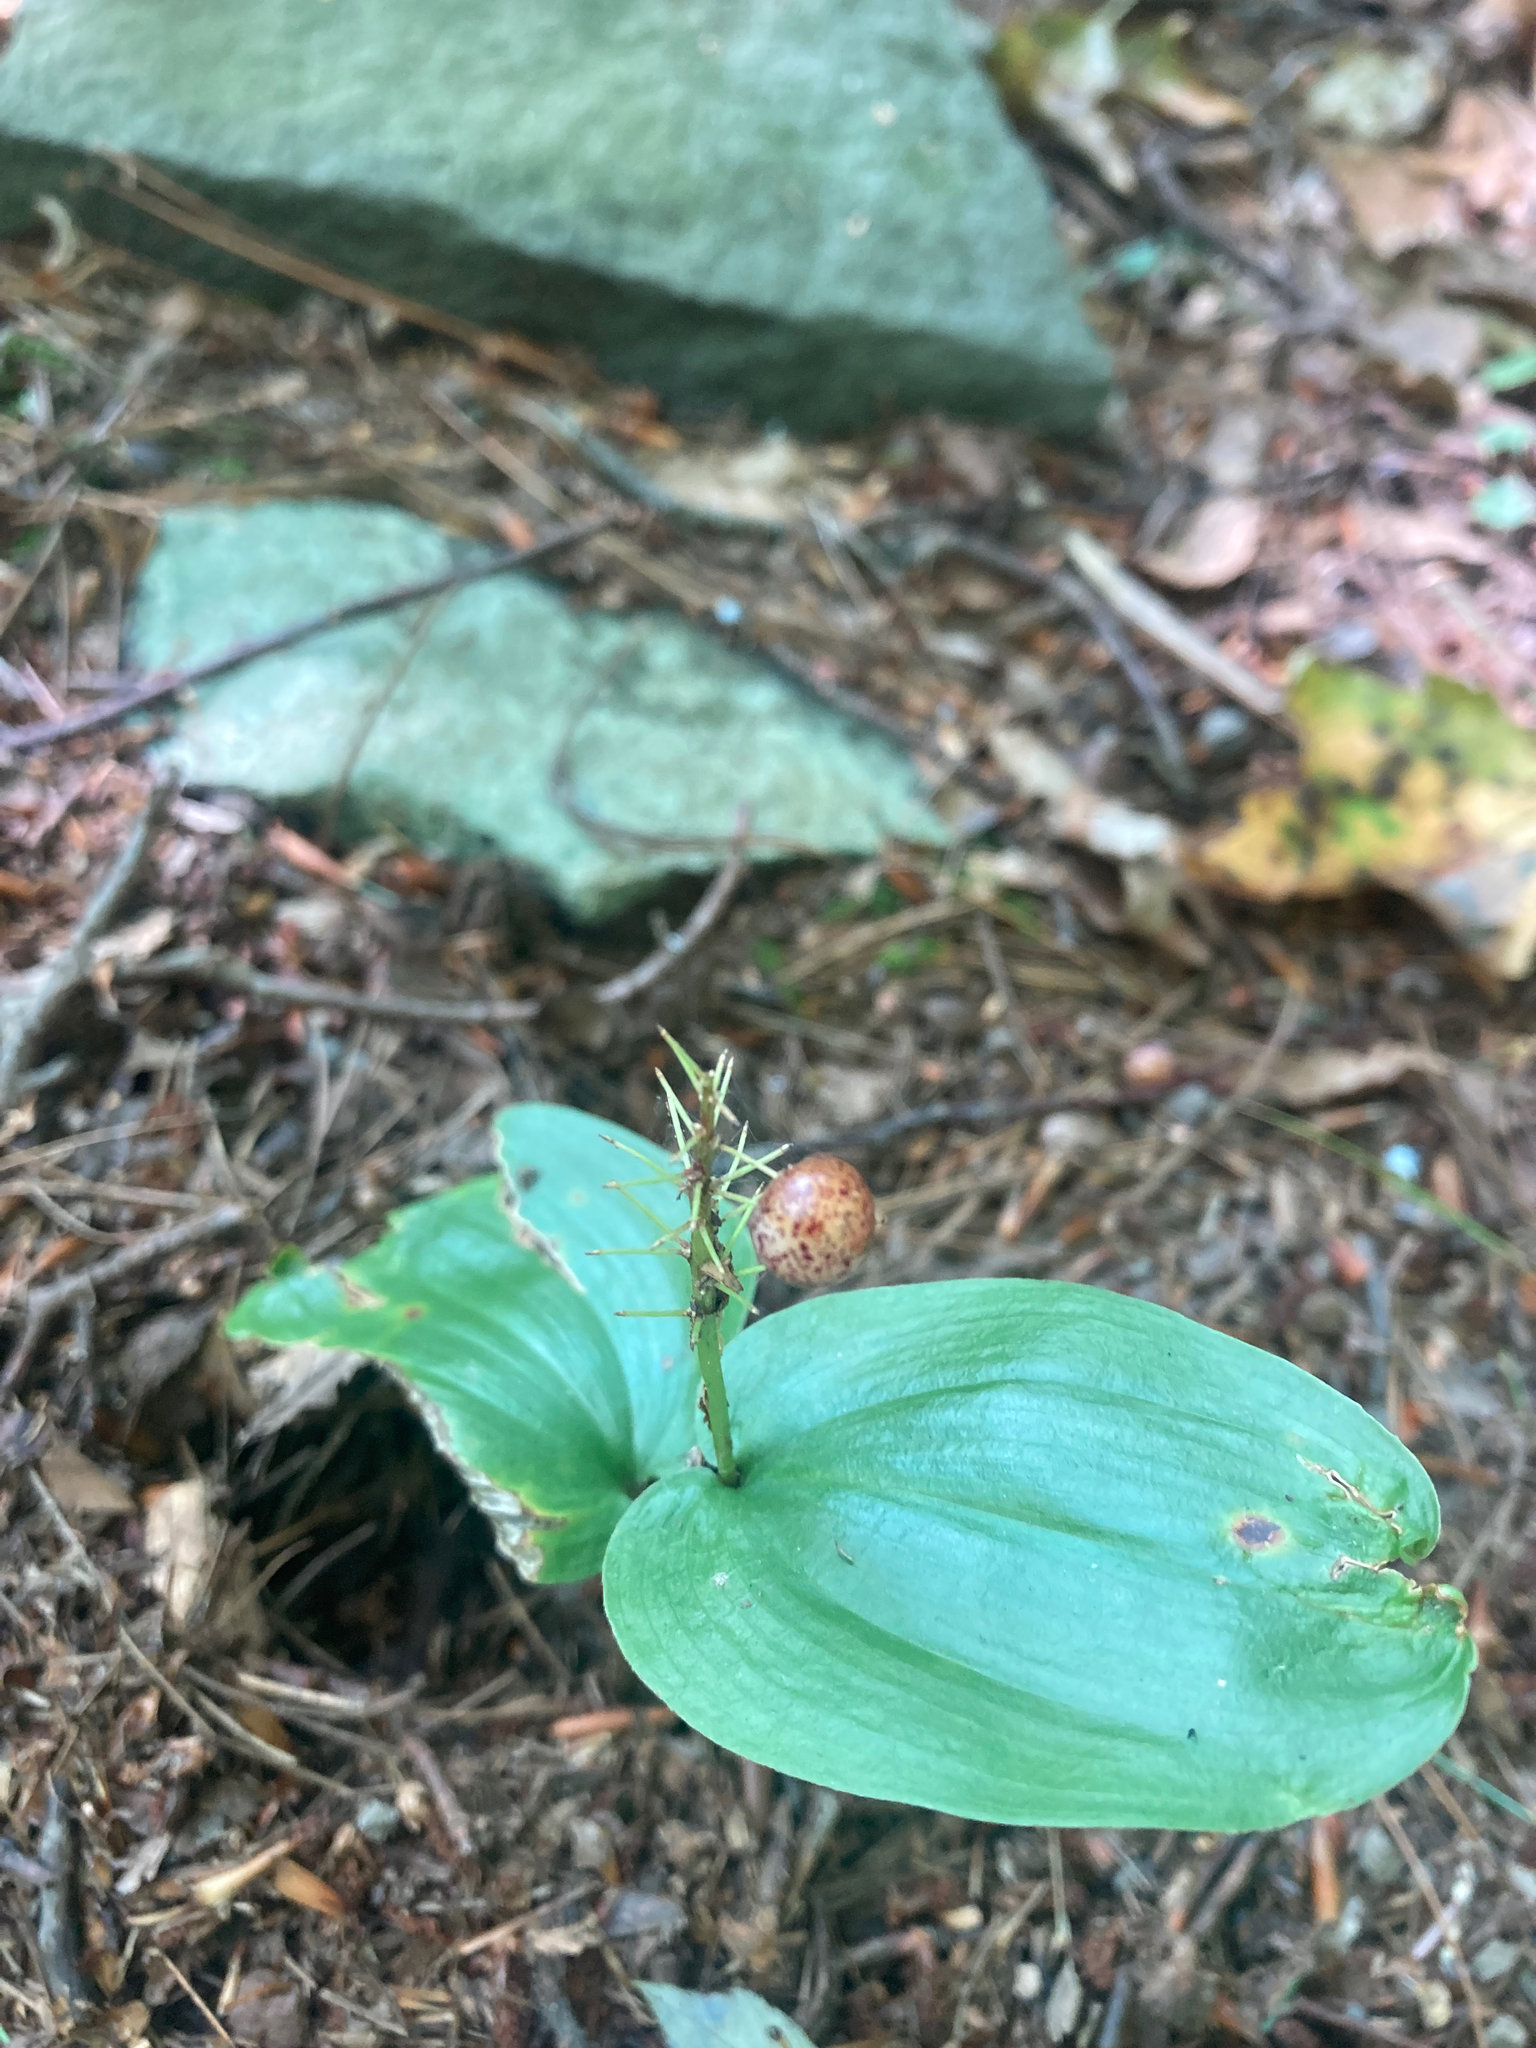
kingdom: Plantae
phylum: Tracheophyta
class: Liliopsida
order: Asparagales
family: Asparagaceae
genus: Maianthemum
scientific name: Maianthemum canadense
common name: False lily-of-the-valley
